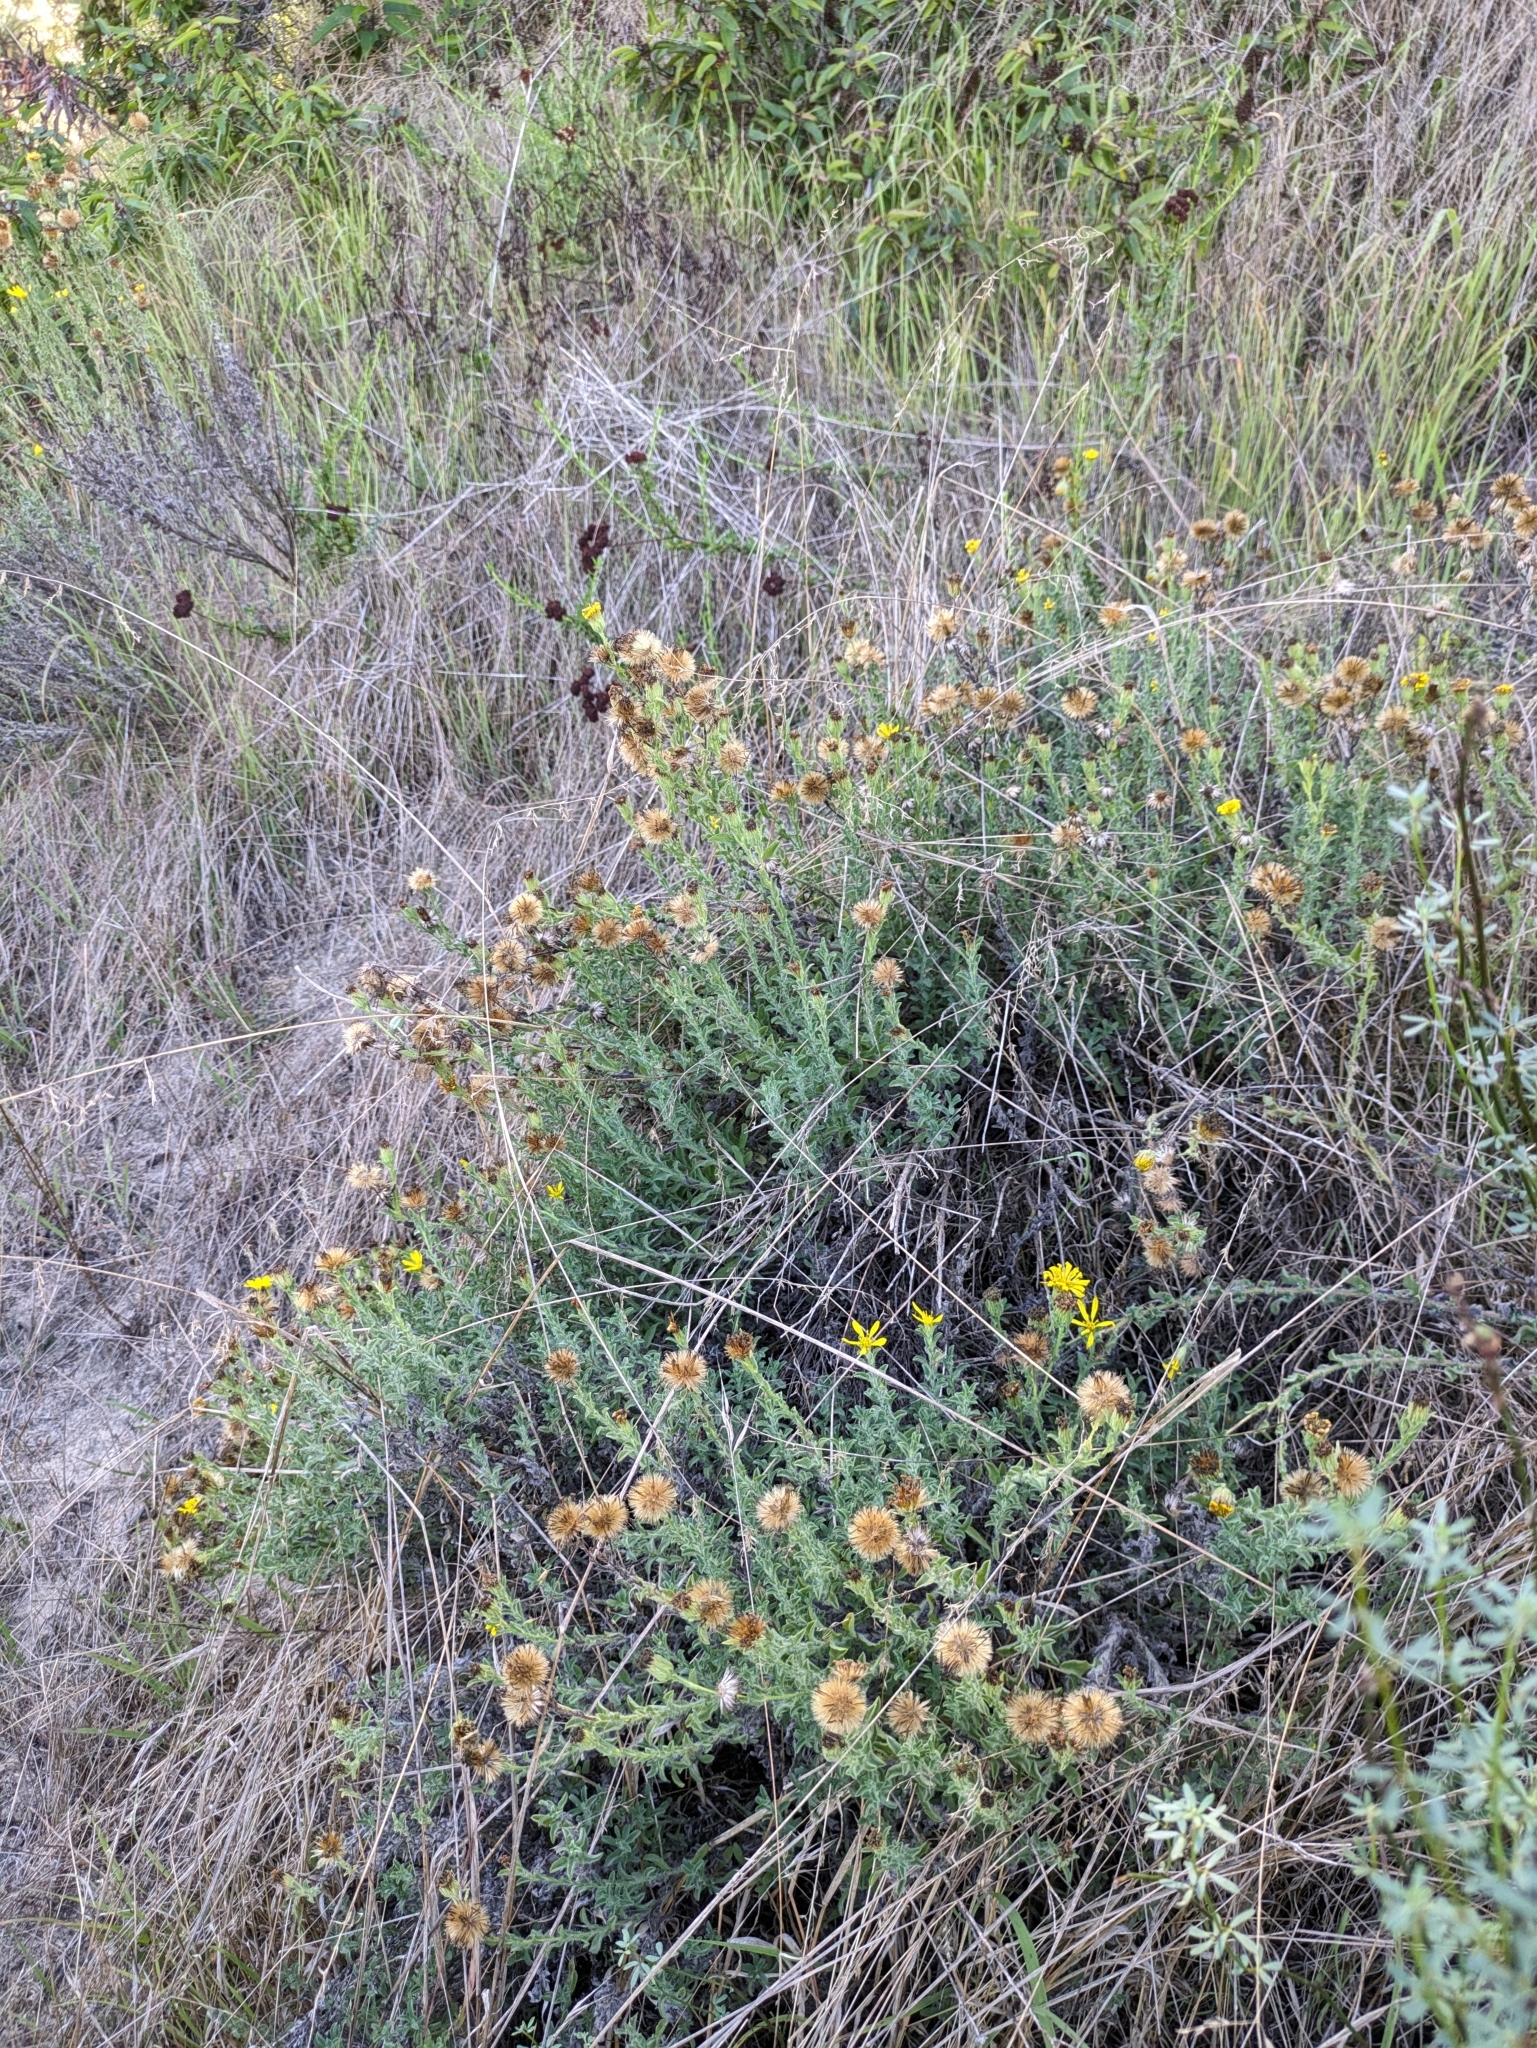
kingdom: Plantae
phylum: Tracheophyta
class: Magnoliopsida
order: Asterales
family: Asteraceae
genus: Heterotheca
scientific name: Heterotheca sessiliflora
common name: Sessile-flower golden-aster
